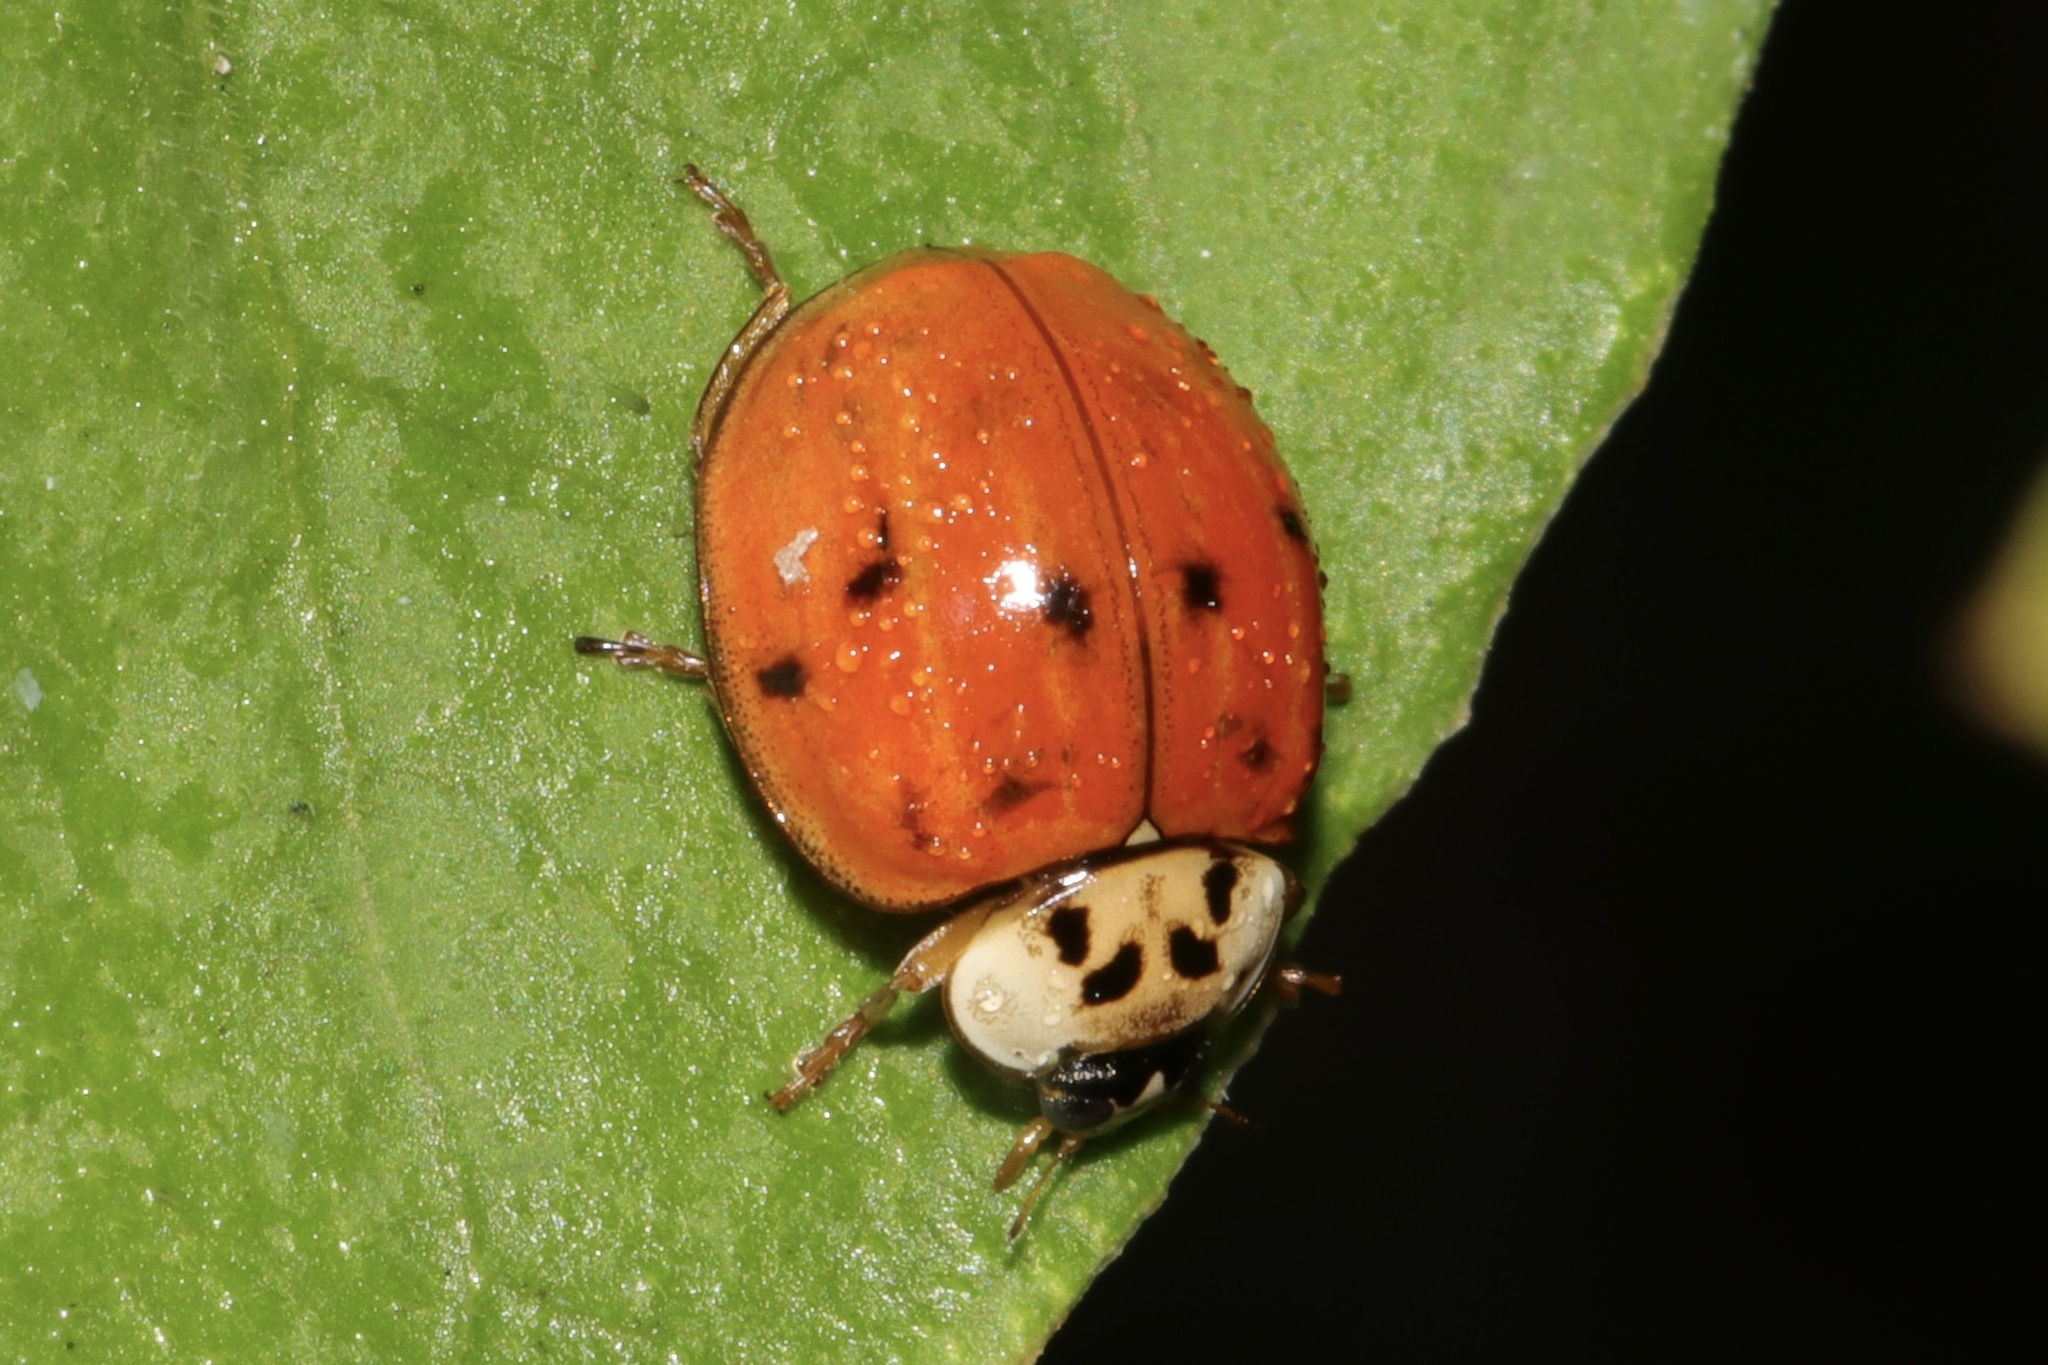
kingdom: Animalia
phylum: Arthropoda
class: Insecta
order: Coleoptera
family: Coccinellidae
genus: Harmonia
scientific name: Harmonia axyridis
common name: Harlequin ladybird
